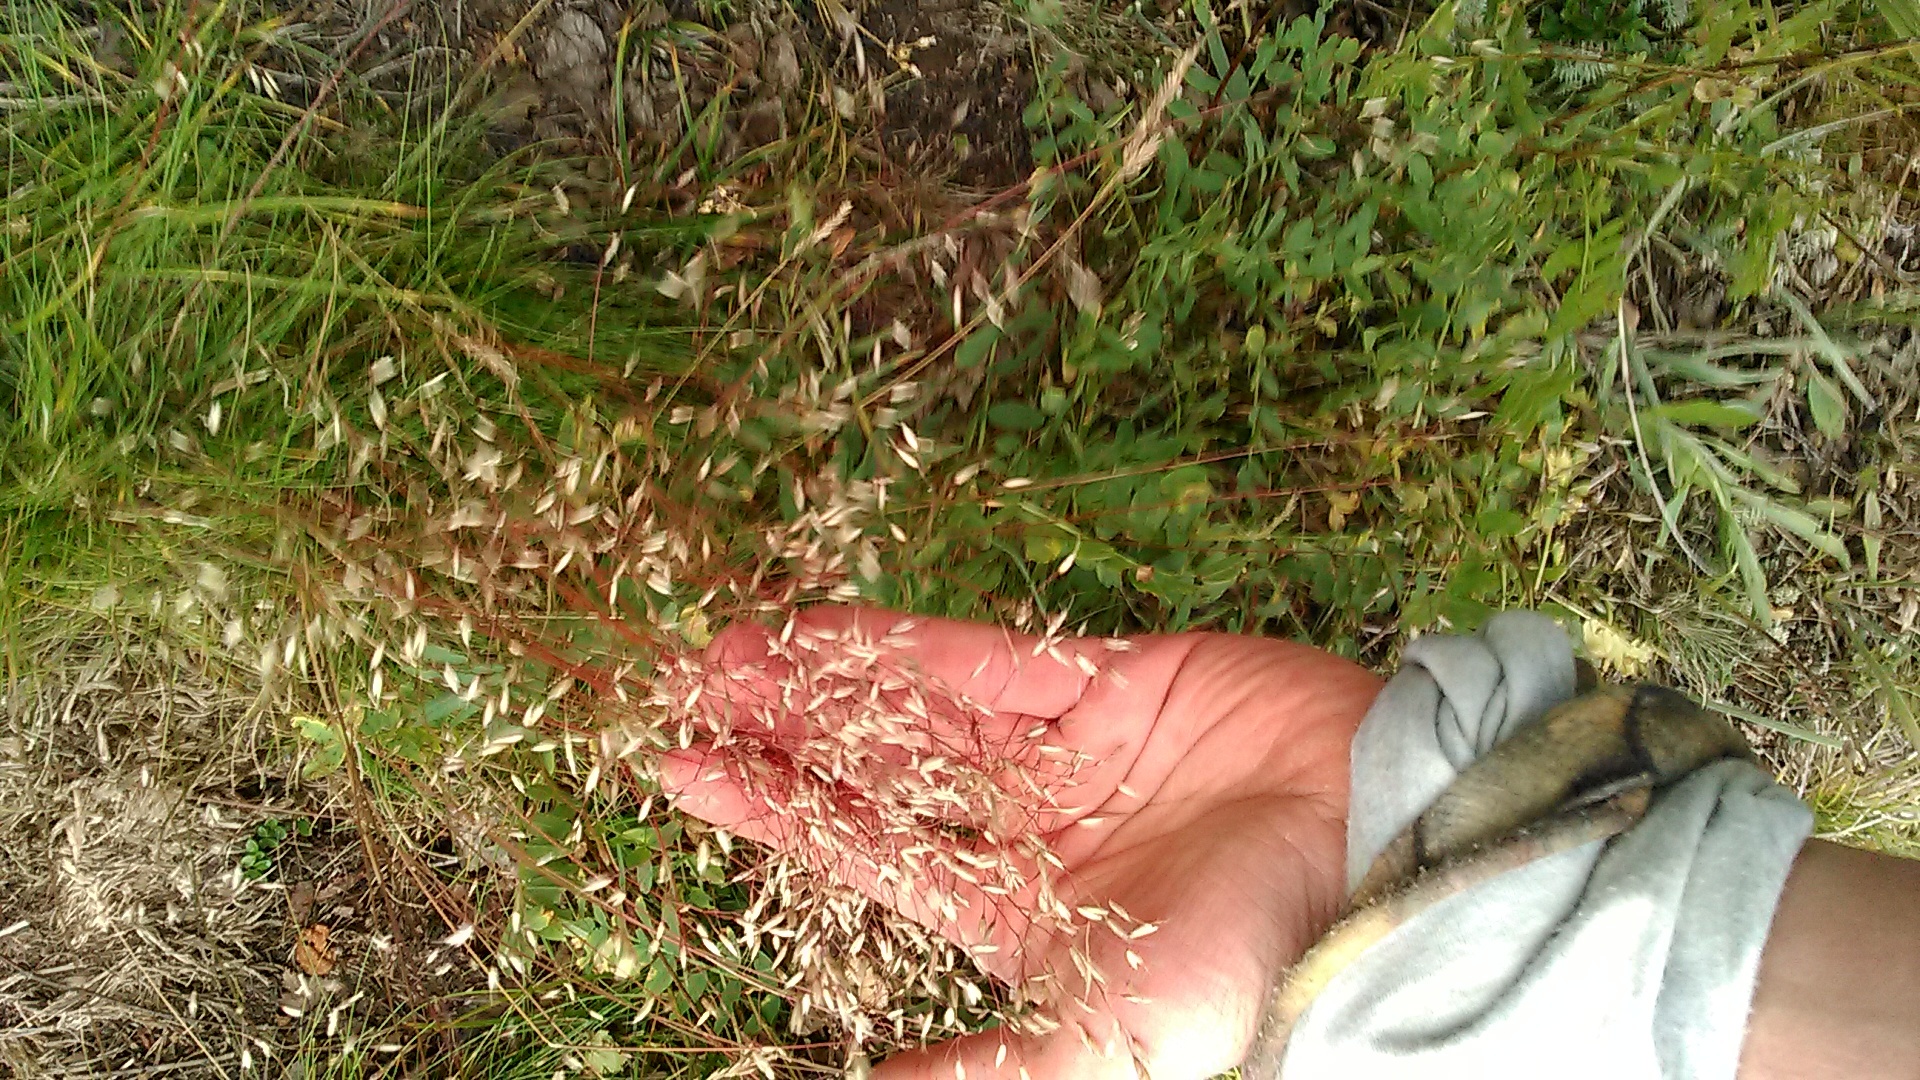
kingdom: Plantae
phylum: Tracheophyta
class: Liliopsida
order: Poales
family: Poaceae
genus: Avenella
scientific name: Avenella flexuosa
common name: Wavy hairgrass
